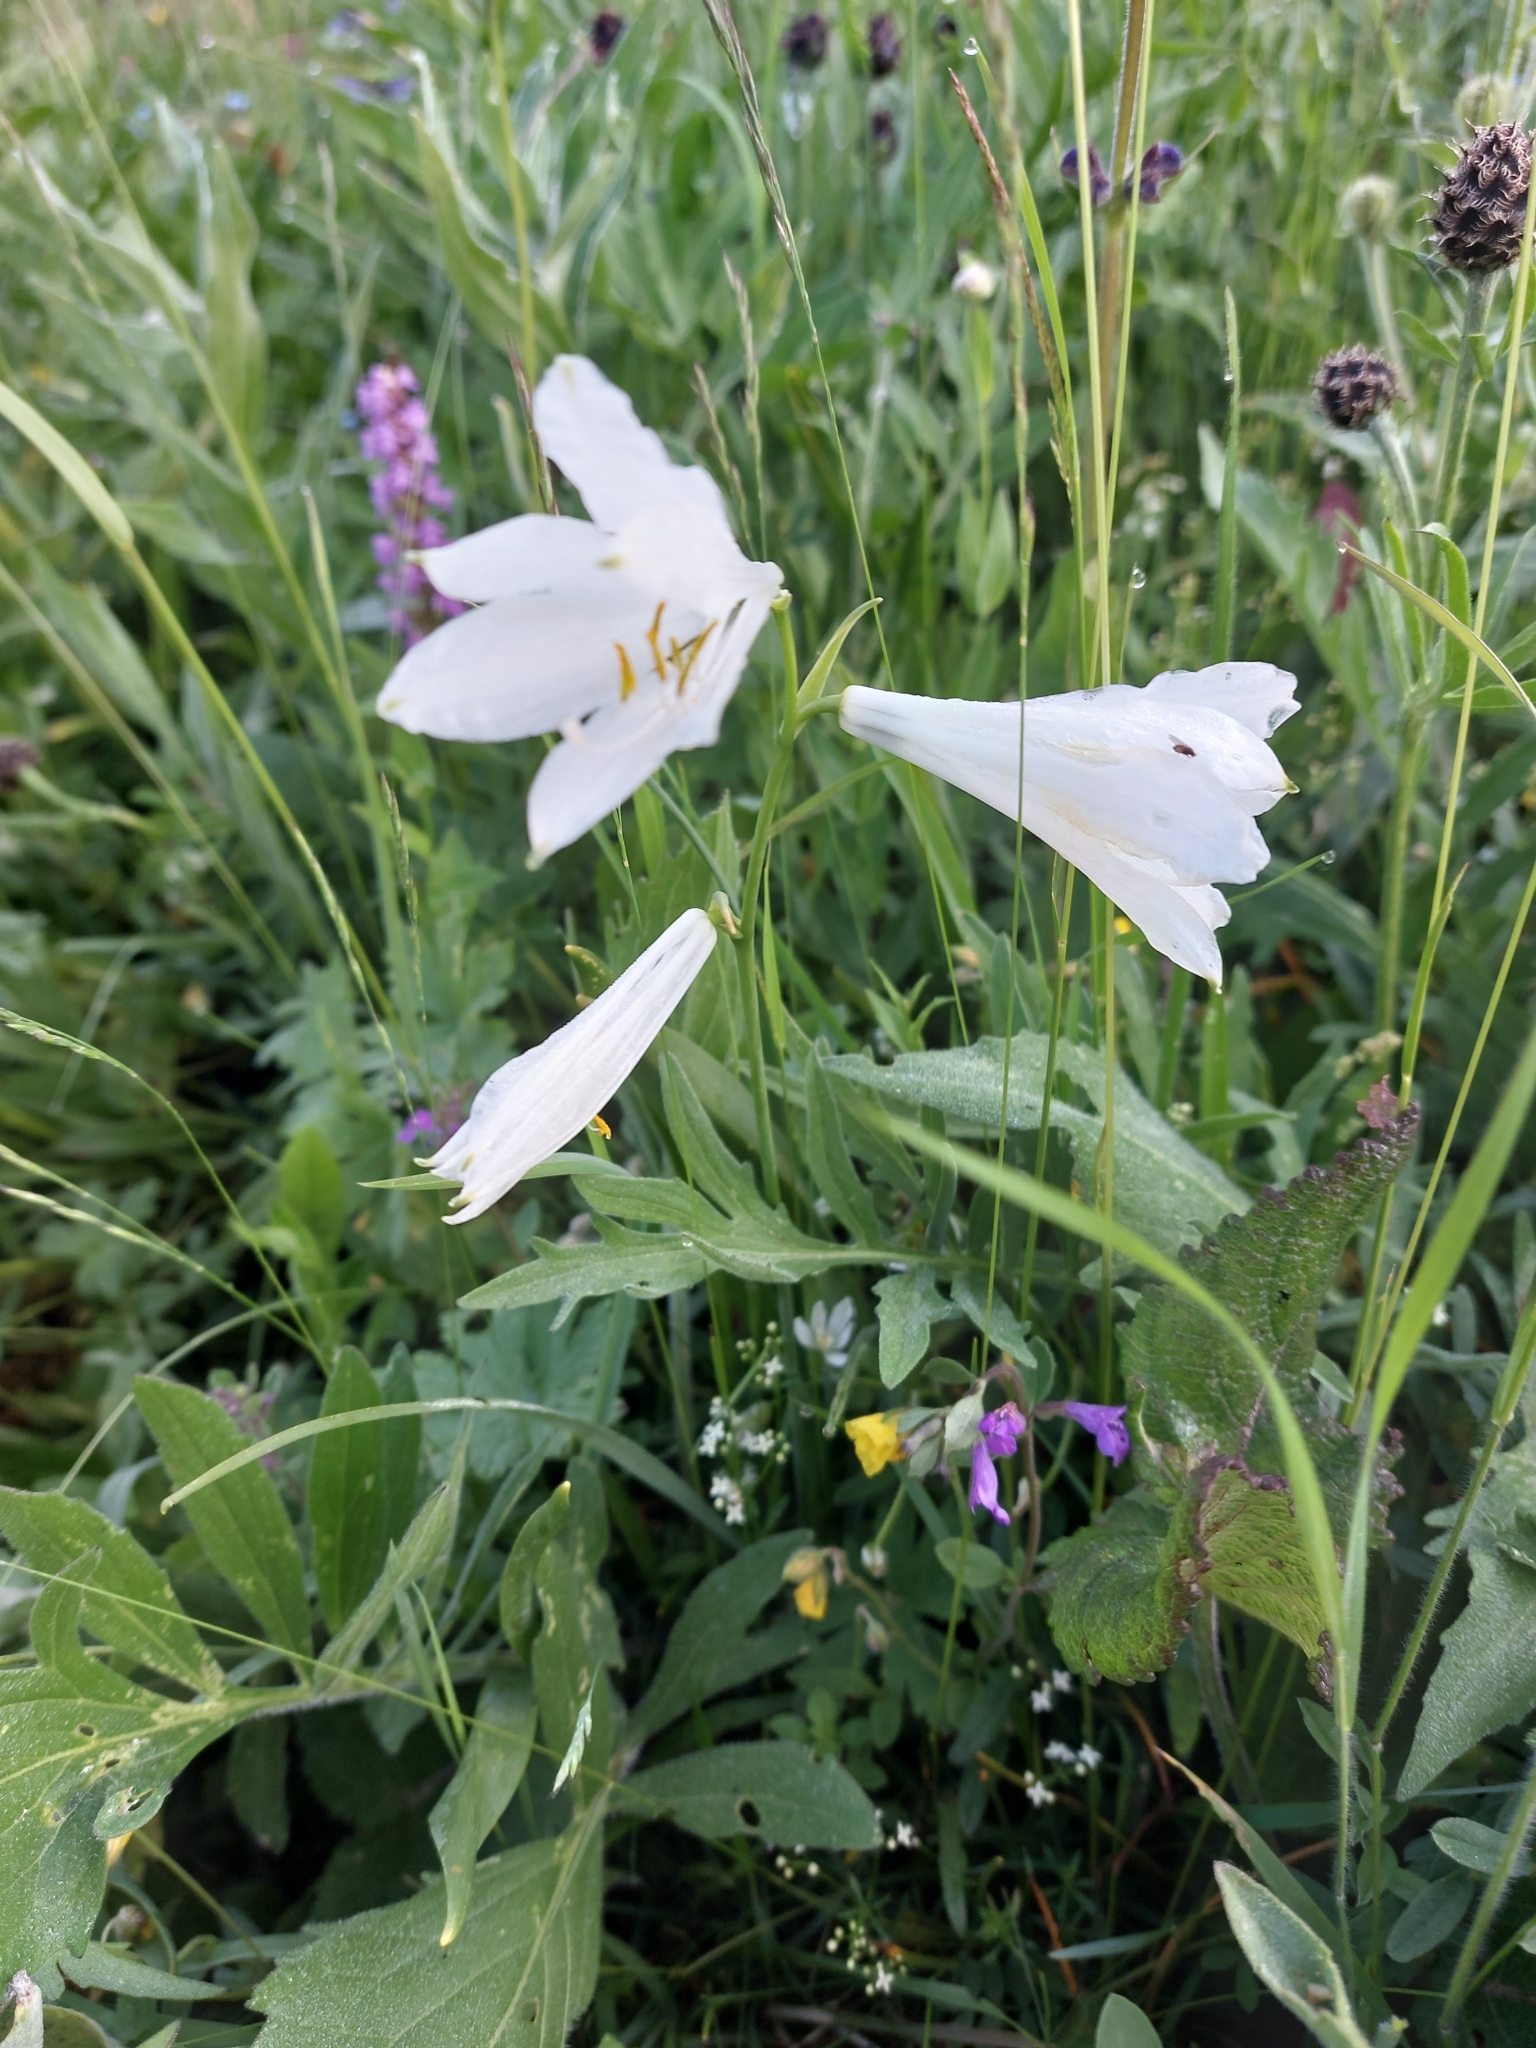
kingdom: Plantae
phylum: Tracheophyta
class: Liliopsida
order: Asparagales
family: Asparagaceae
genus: Paradisea
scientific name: Paradisea liliastrum
